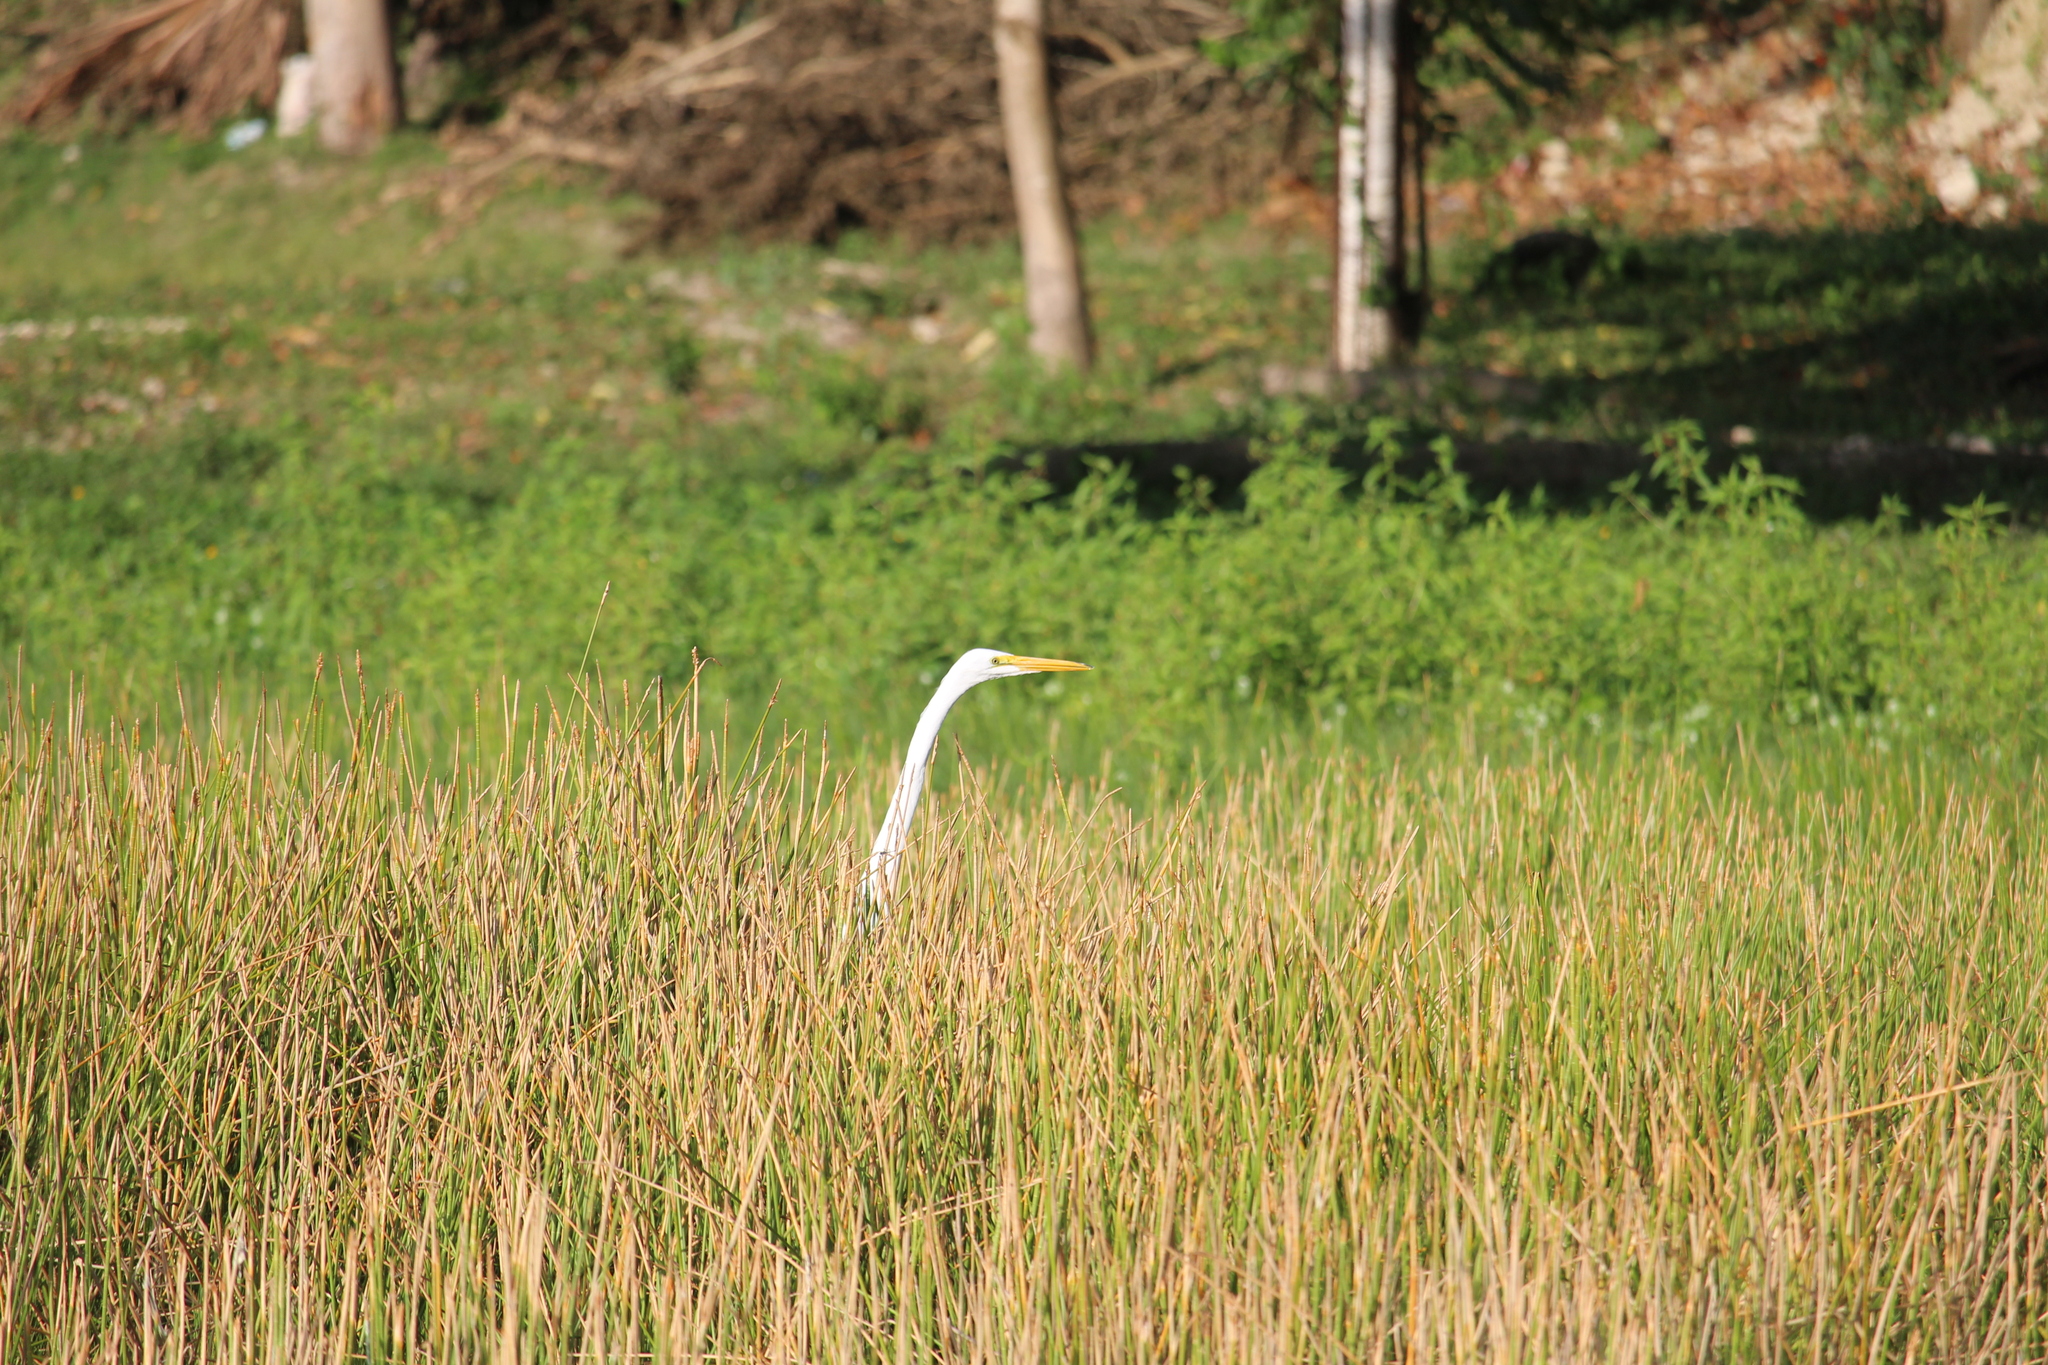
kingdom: Animalia
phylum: Chordata
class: Aves
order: Pelecaniformes
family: Ardeidae
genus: Ardea
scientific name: Ardea alba
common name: Great egret
